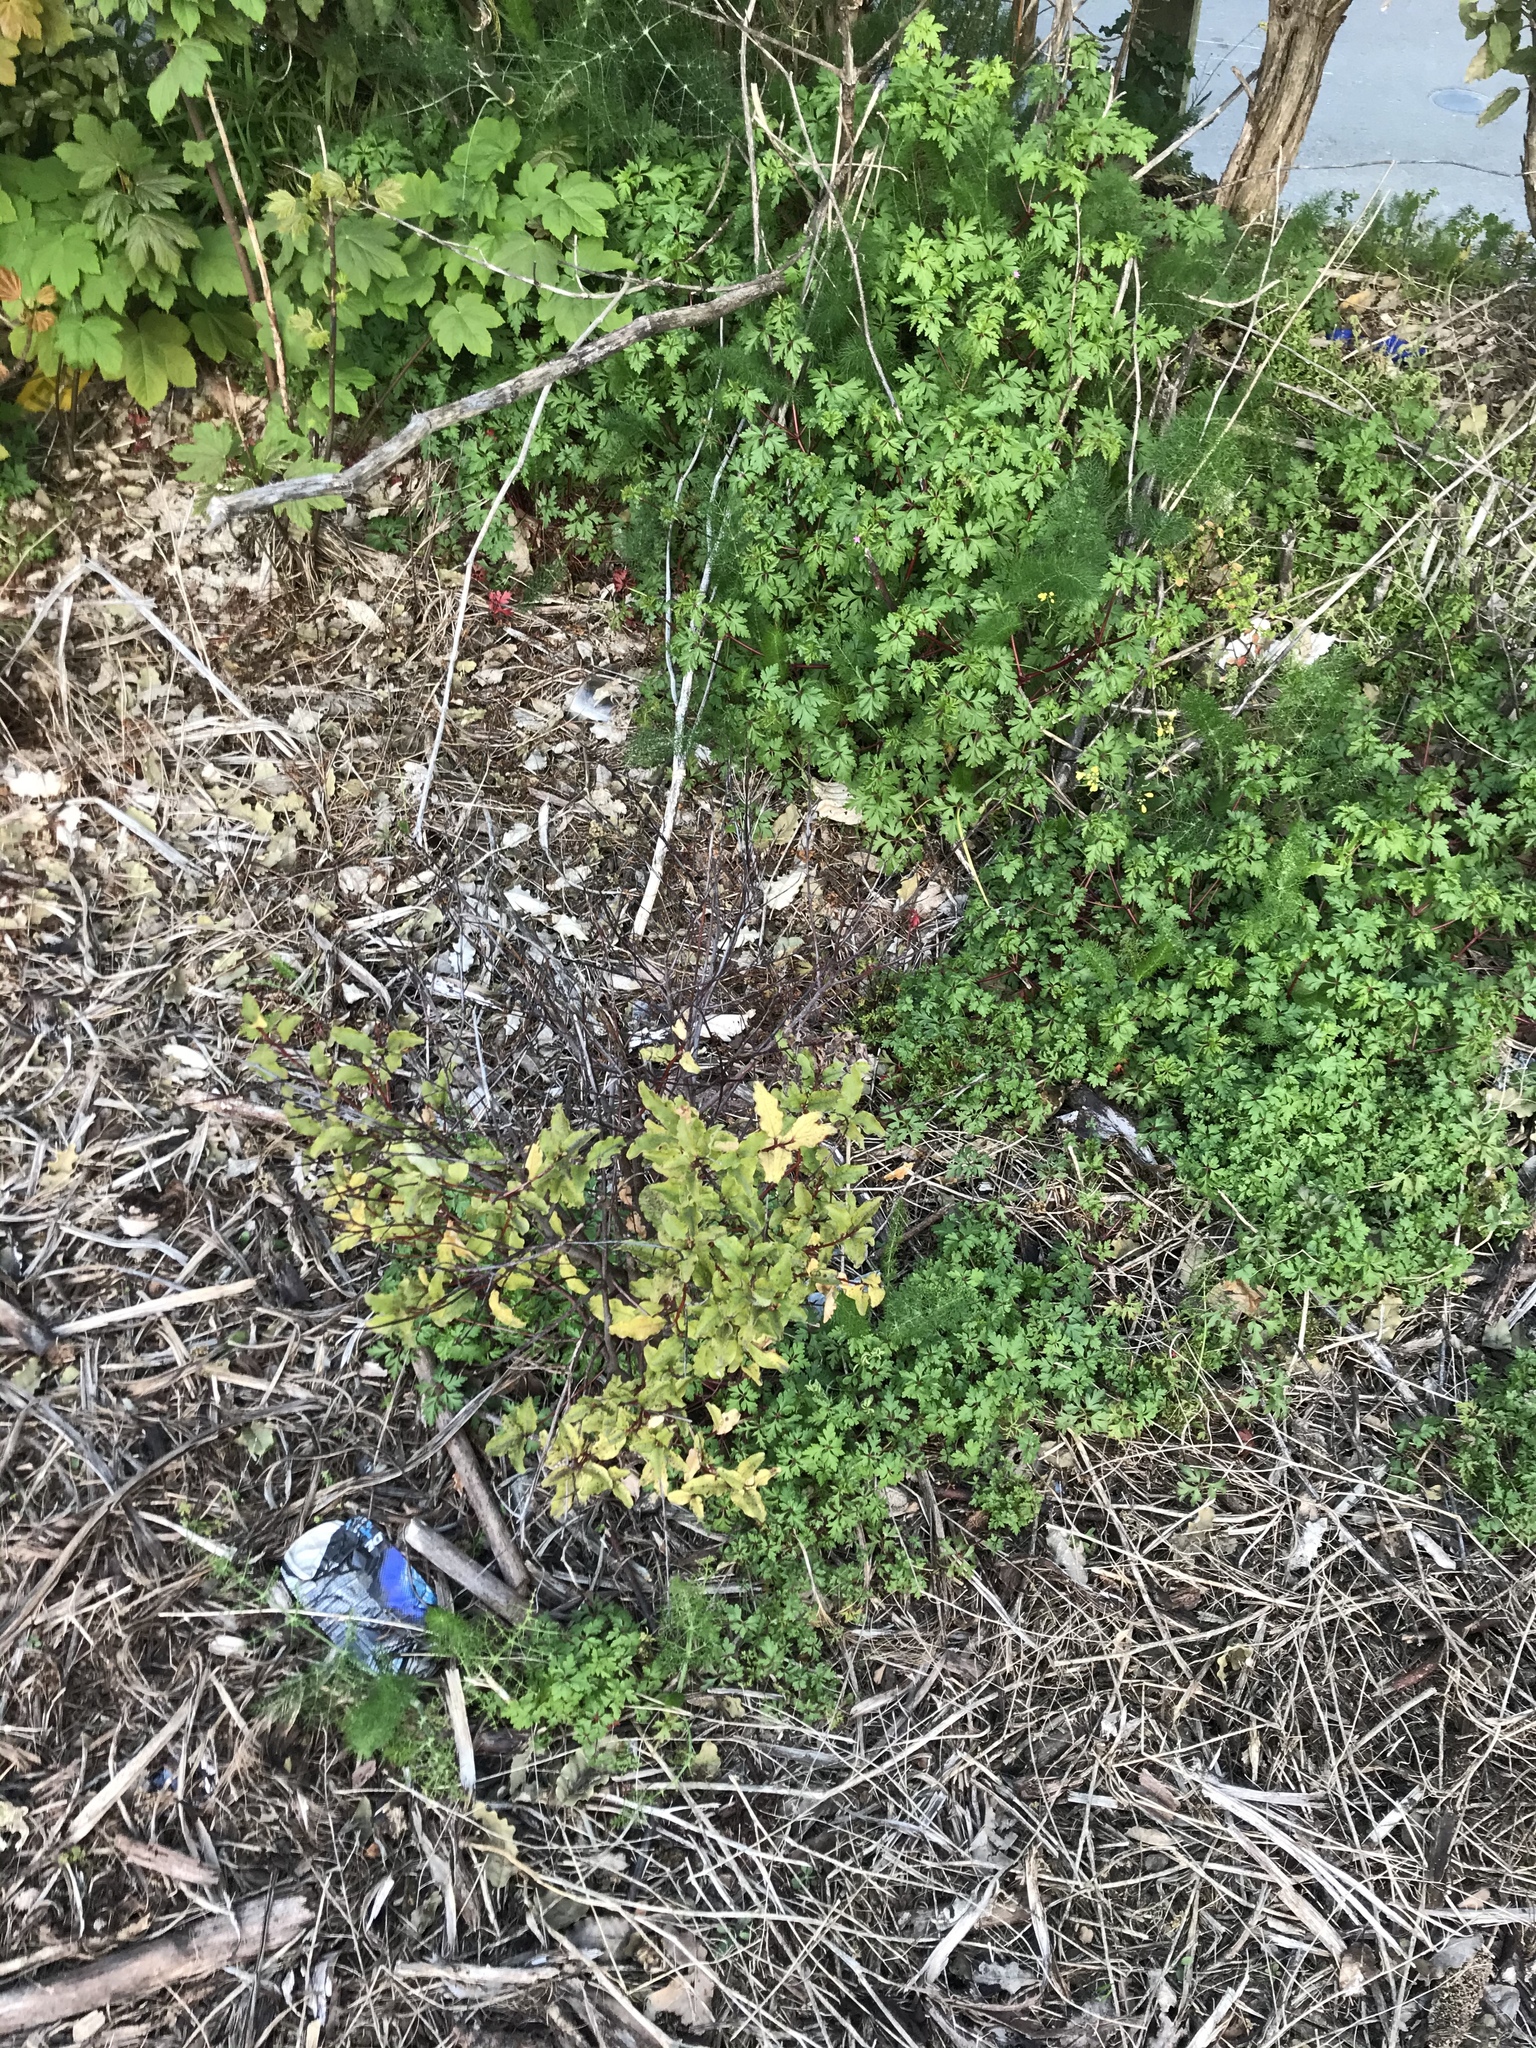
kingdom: Plantae
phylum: Tracheophyta
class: Magnoliopsida
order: Ericales
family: Primulaceae
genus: Myrsine
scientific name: Myrsine australis
